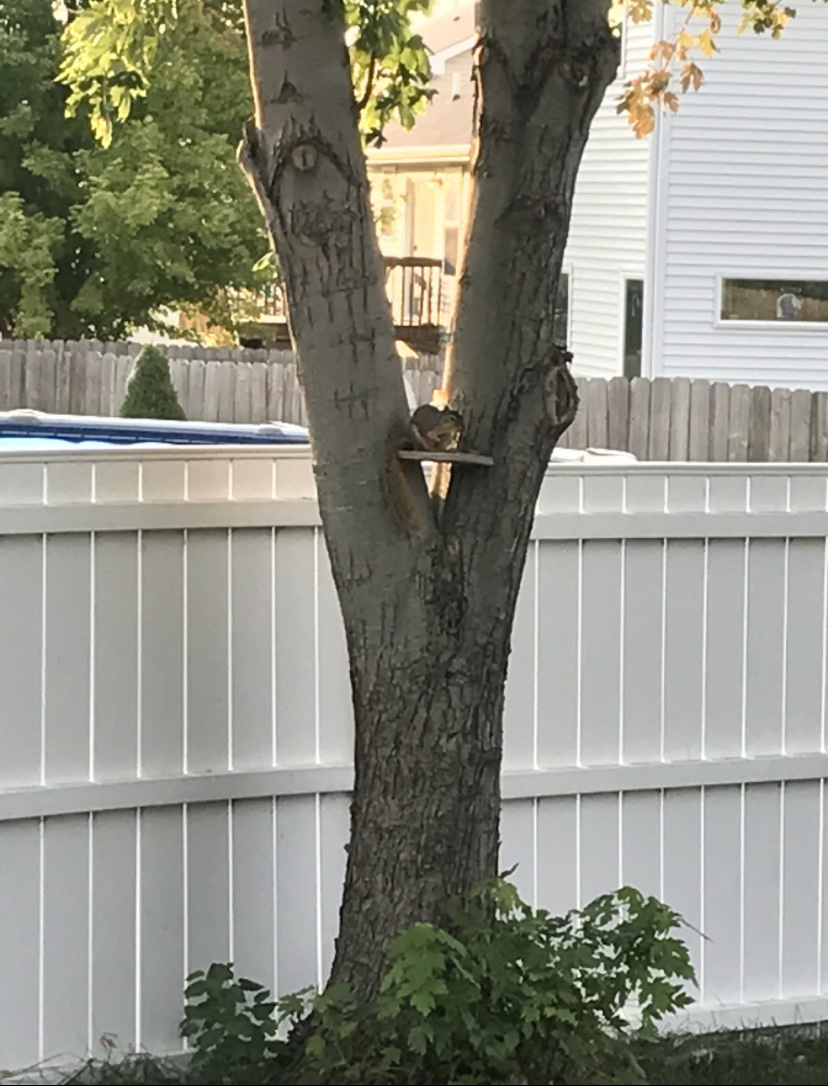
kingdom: Animalia
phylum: Chordata
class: Mammalia
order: Rodentia
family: Sciuridae
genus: Sciurus
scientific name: Sciurus niger
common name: Fox squirrel
